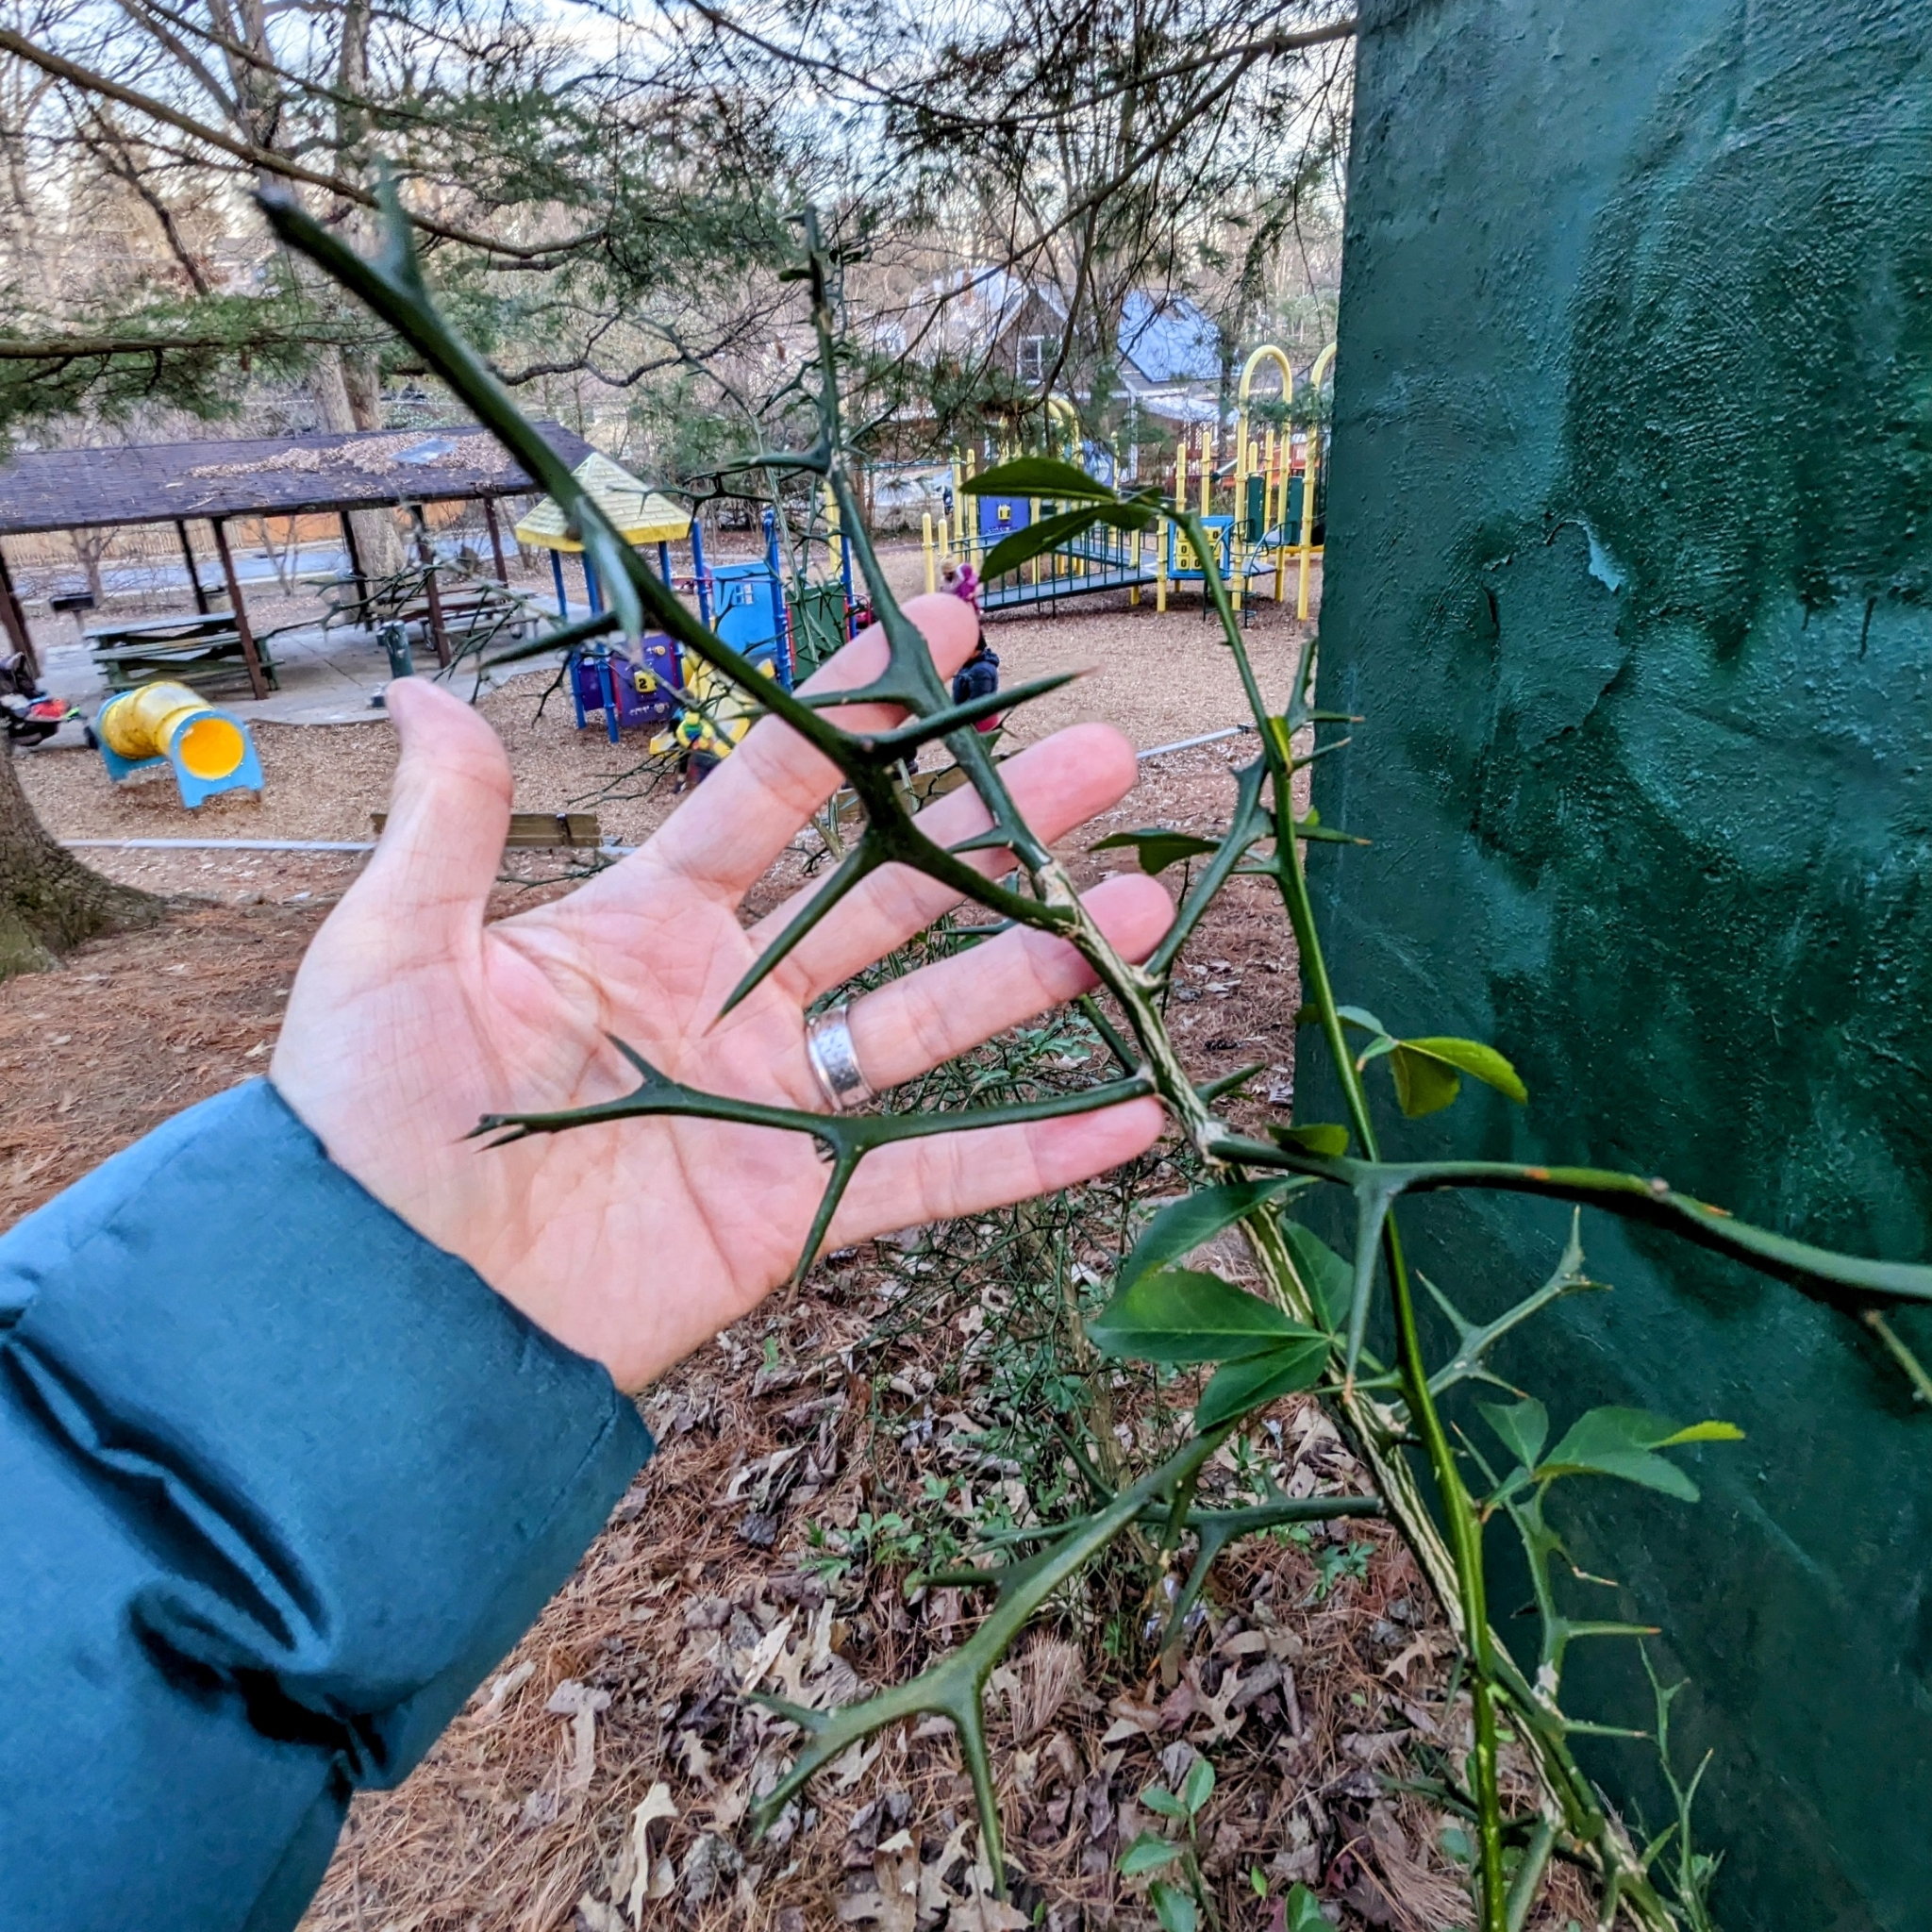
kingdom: Plantae
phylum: Tracheophyta
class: Magnoliopsida
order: Sapindales
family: Rutaceae
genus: Citrus
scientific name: Citrus trifoliata
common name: Japanese bitter-orange
